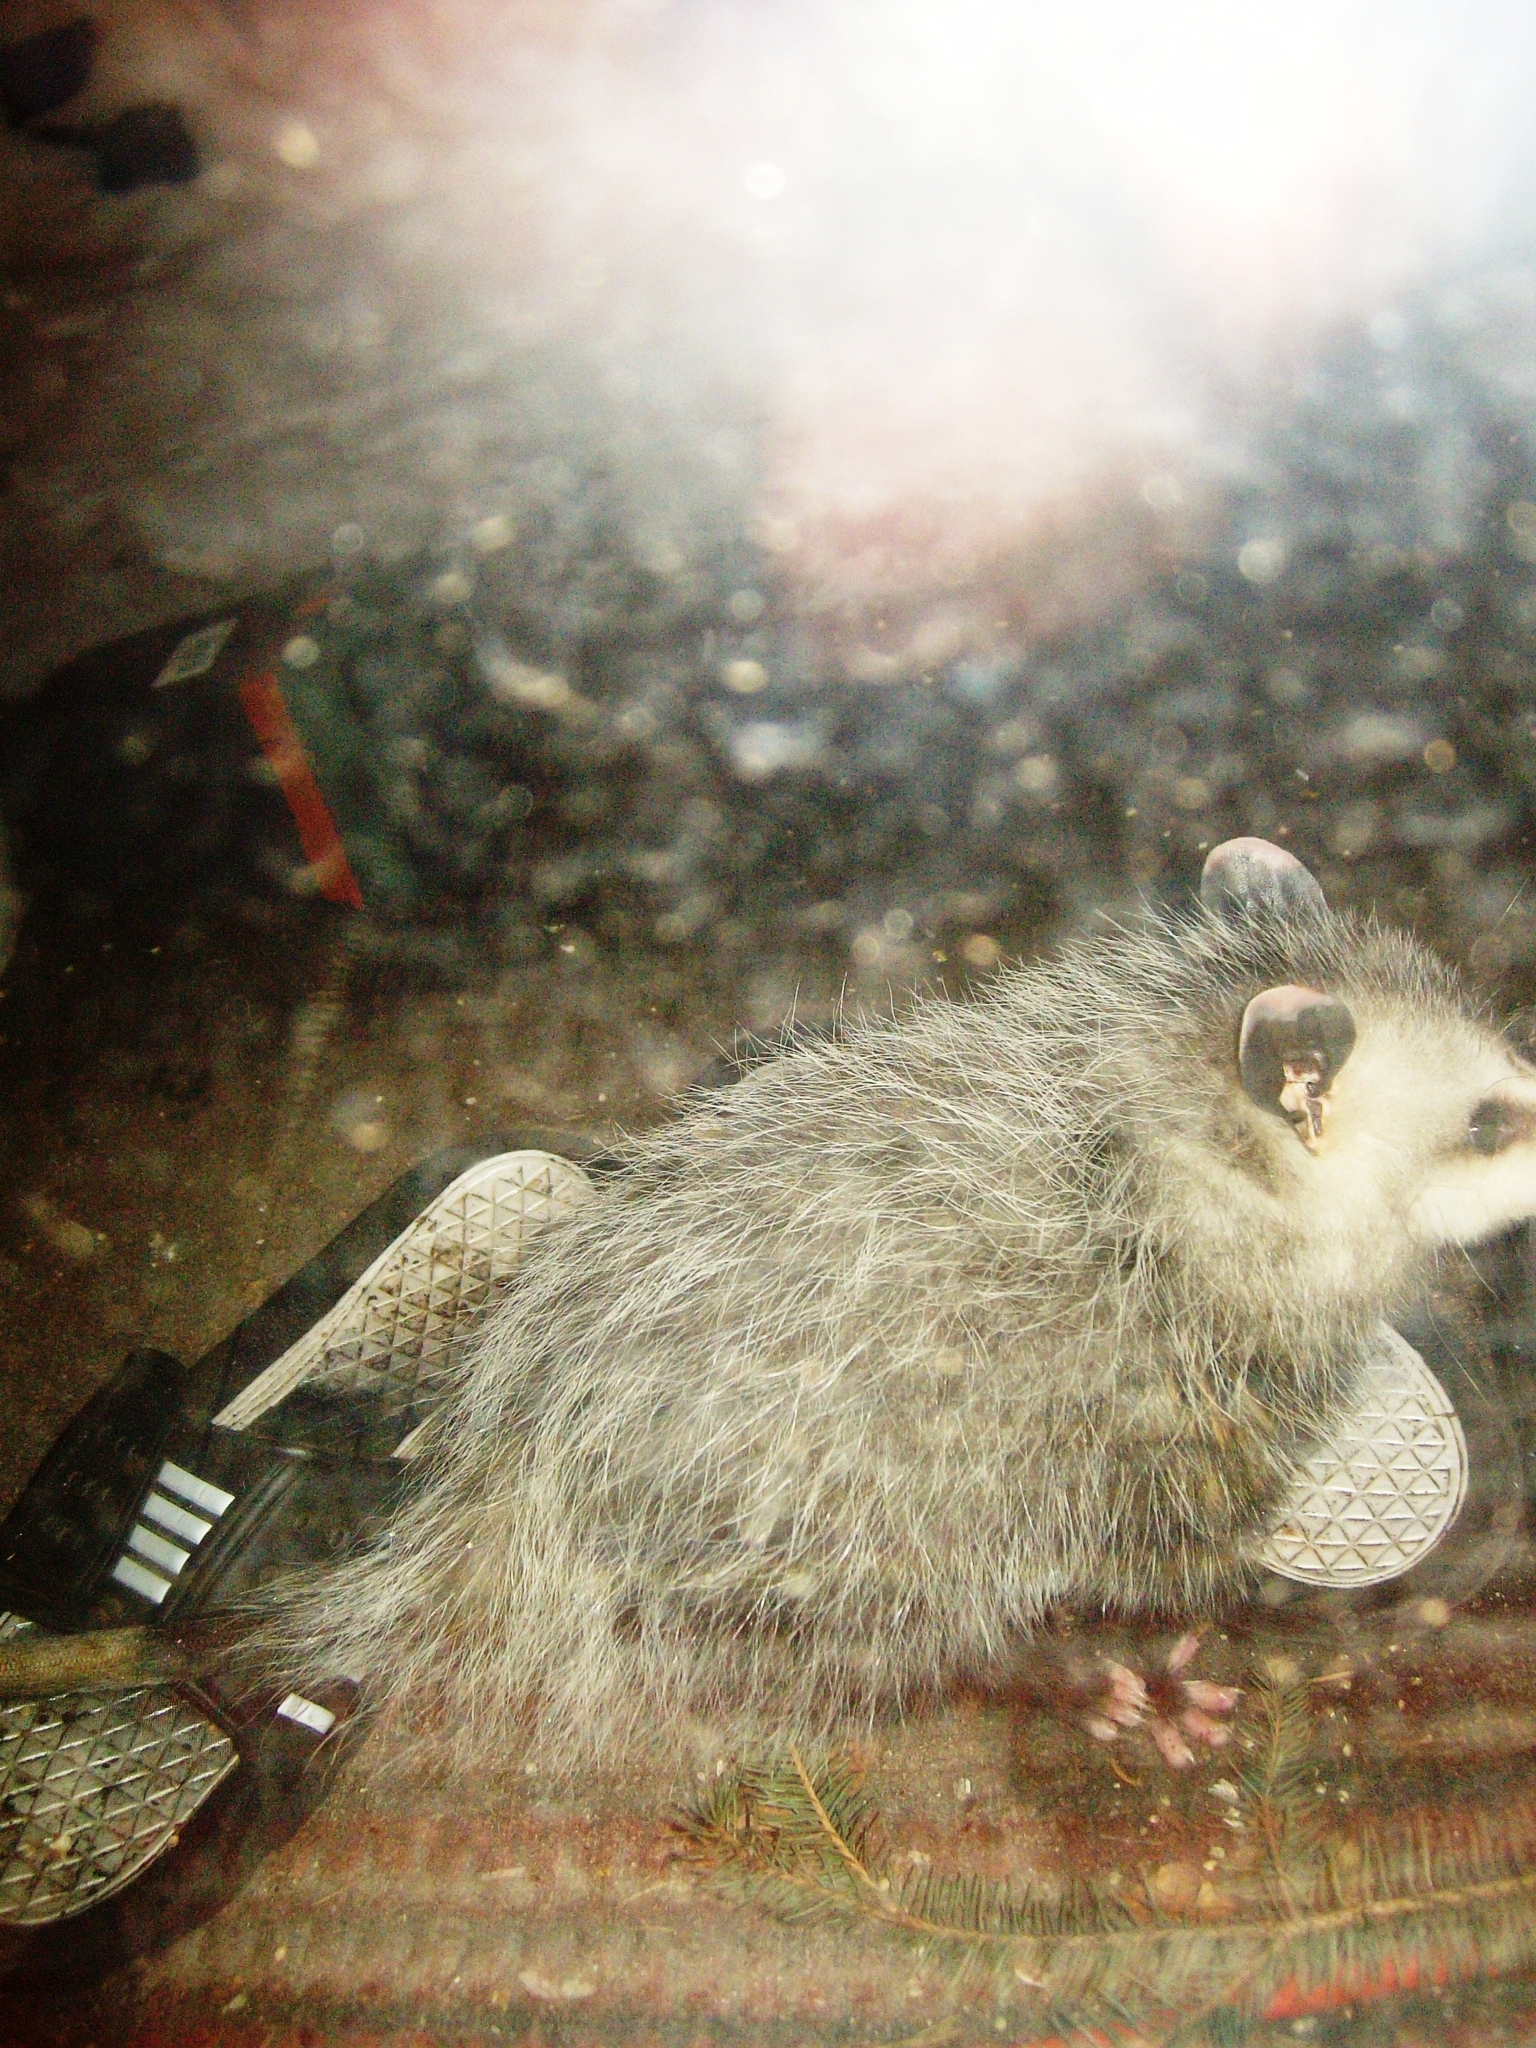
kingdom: Animalia
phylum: Chordata
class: Mammalia
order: Didelphimorphia
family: Didelphidae
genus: Didelphis
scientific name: Didelphis virginiana
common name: Virginia opossum
